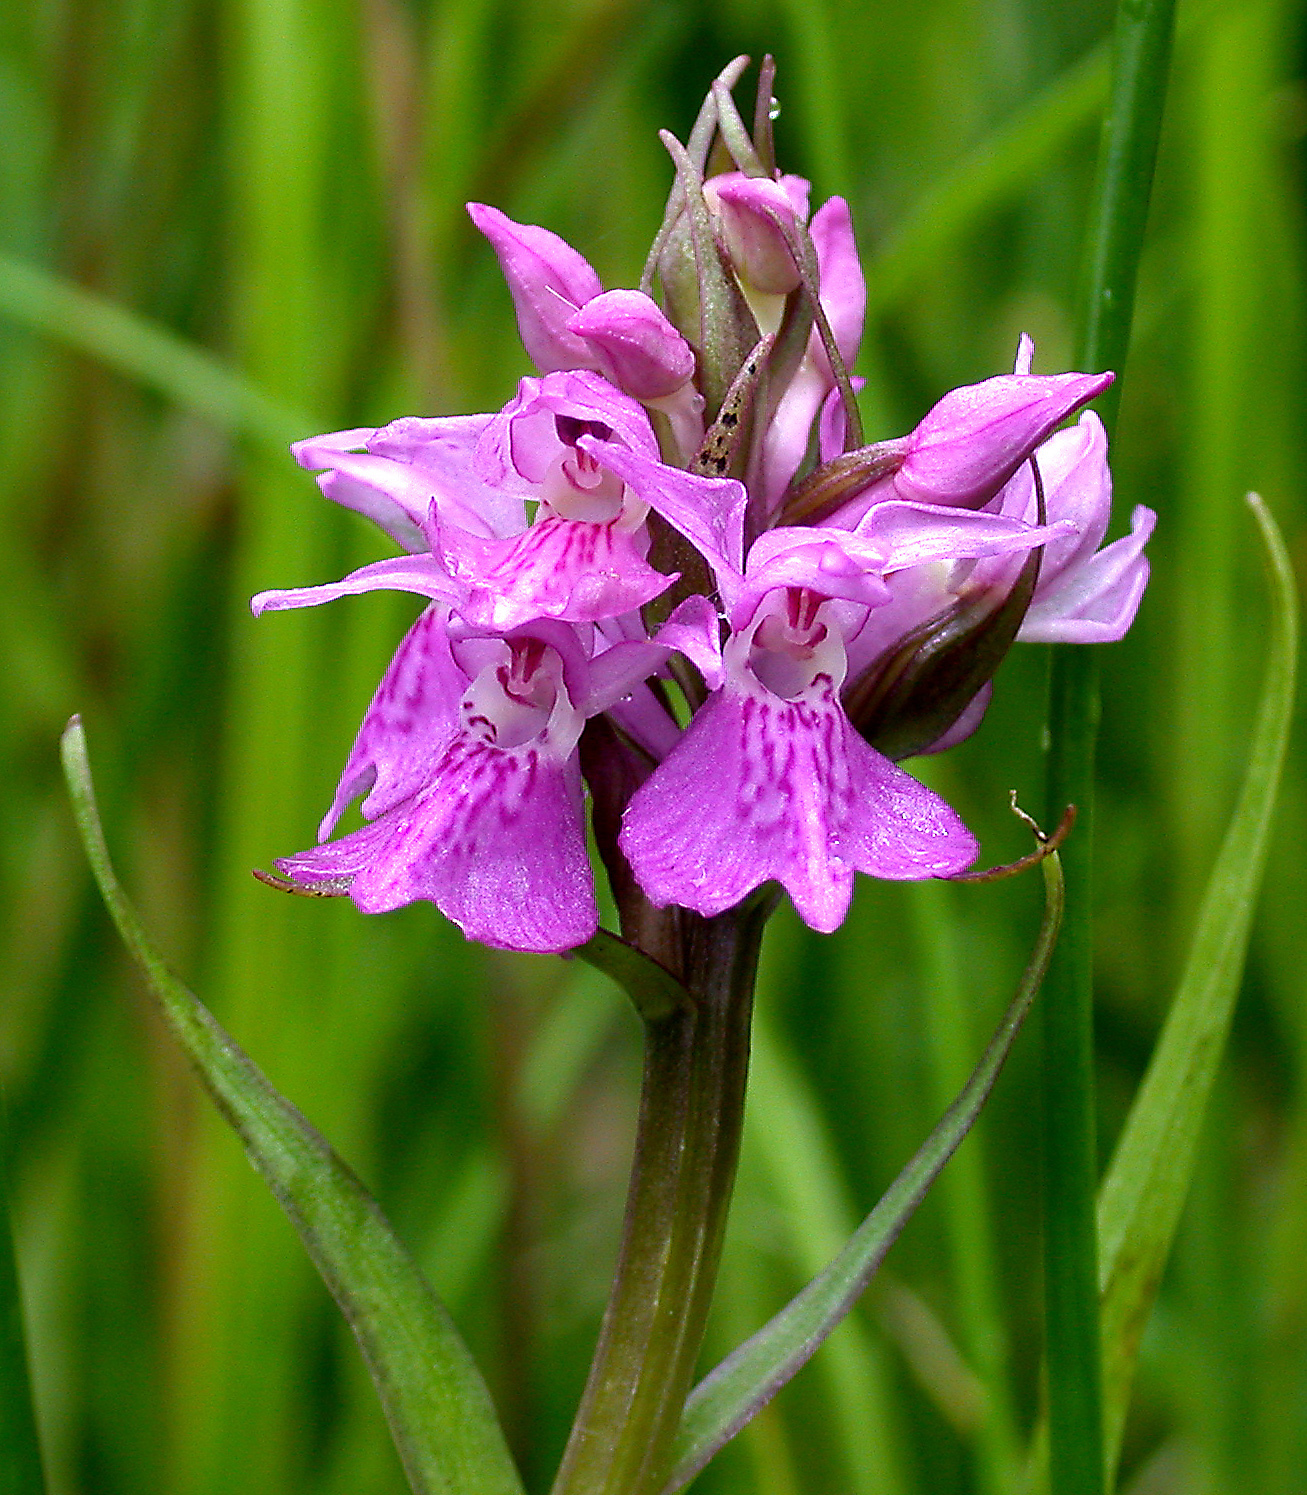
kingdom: Plantae
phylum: Tracheophyta
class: Liliopsida
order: Asparagales
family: Orchidaceae
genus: Dactylorhiza
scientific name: Dactylorhiza majalis
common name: Marsh orchid
